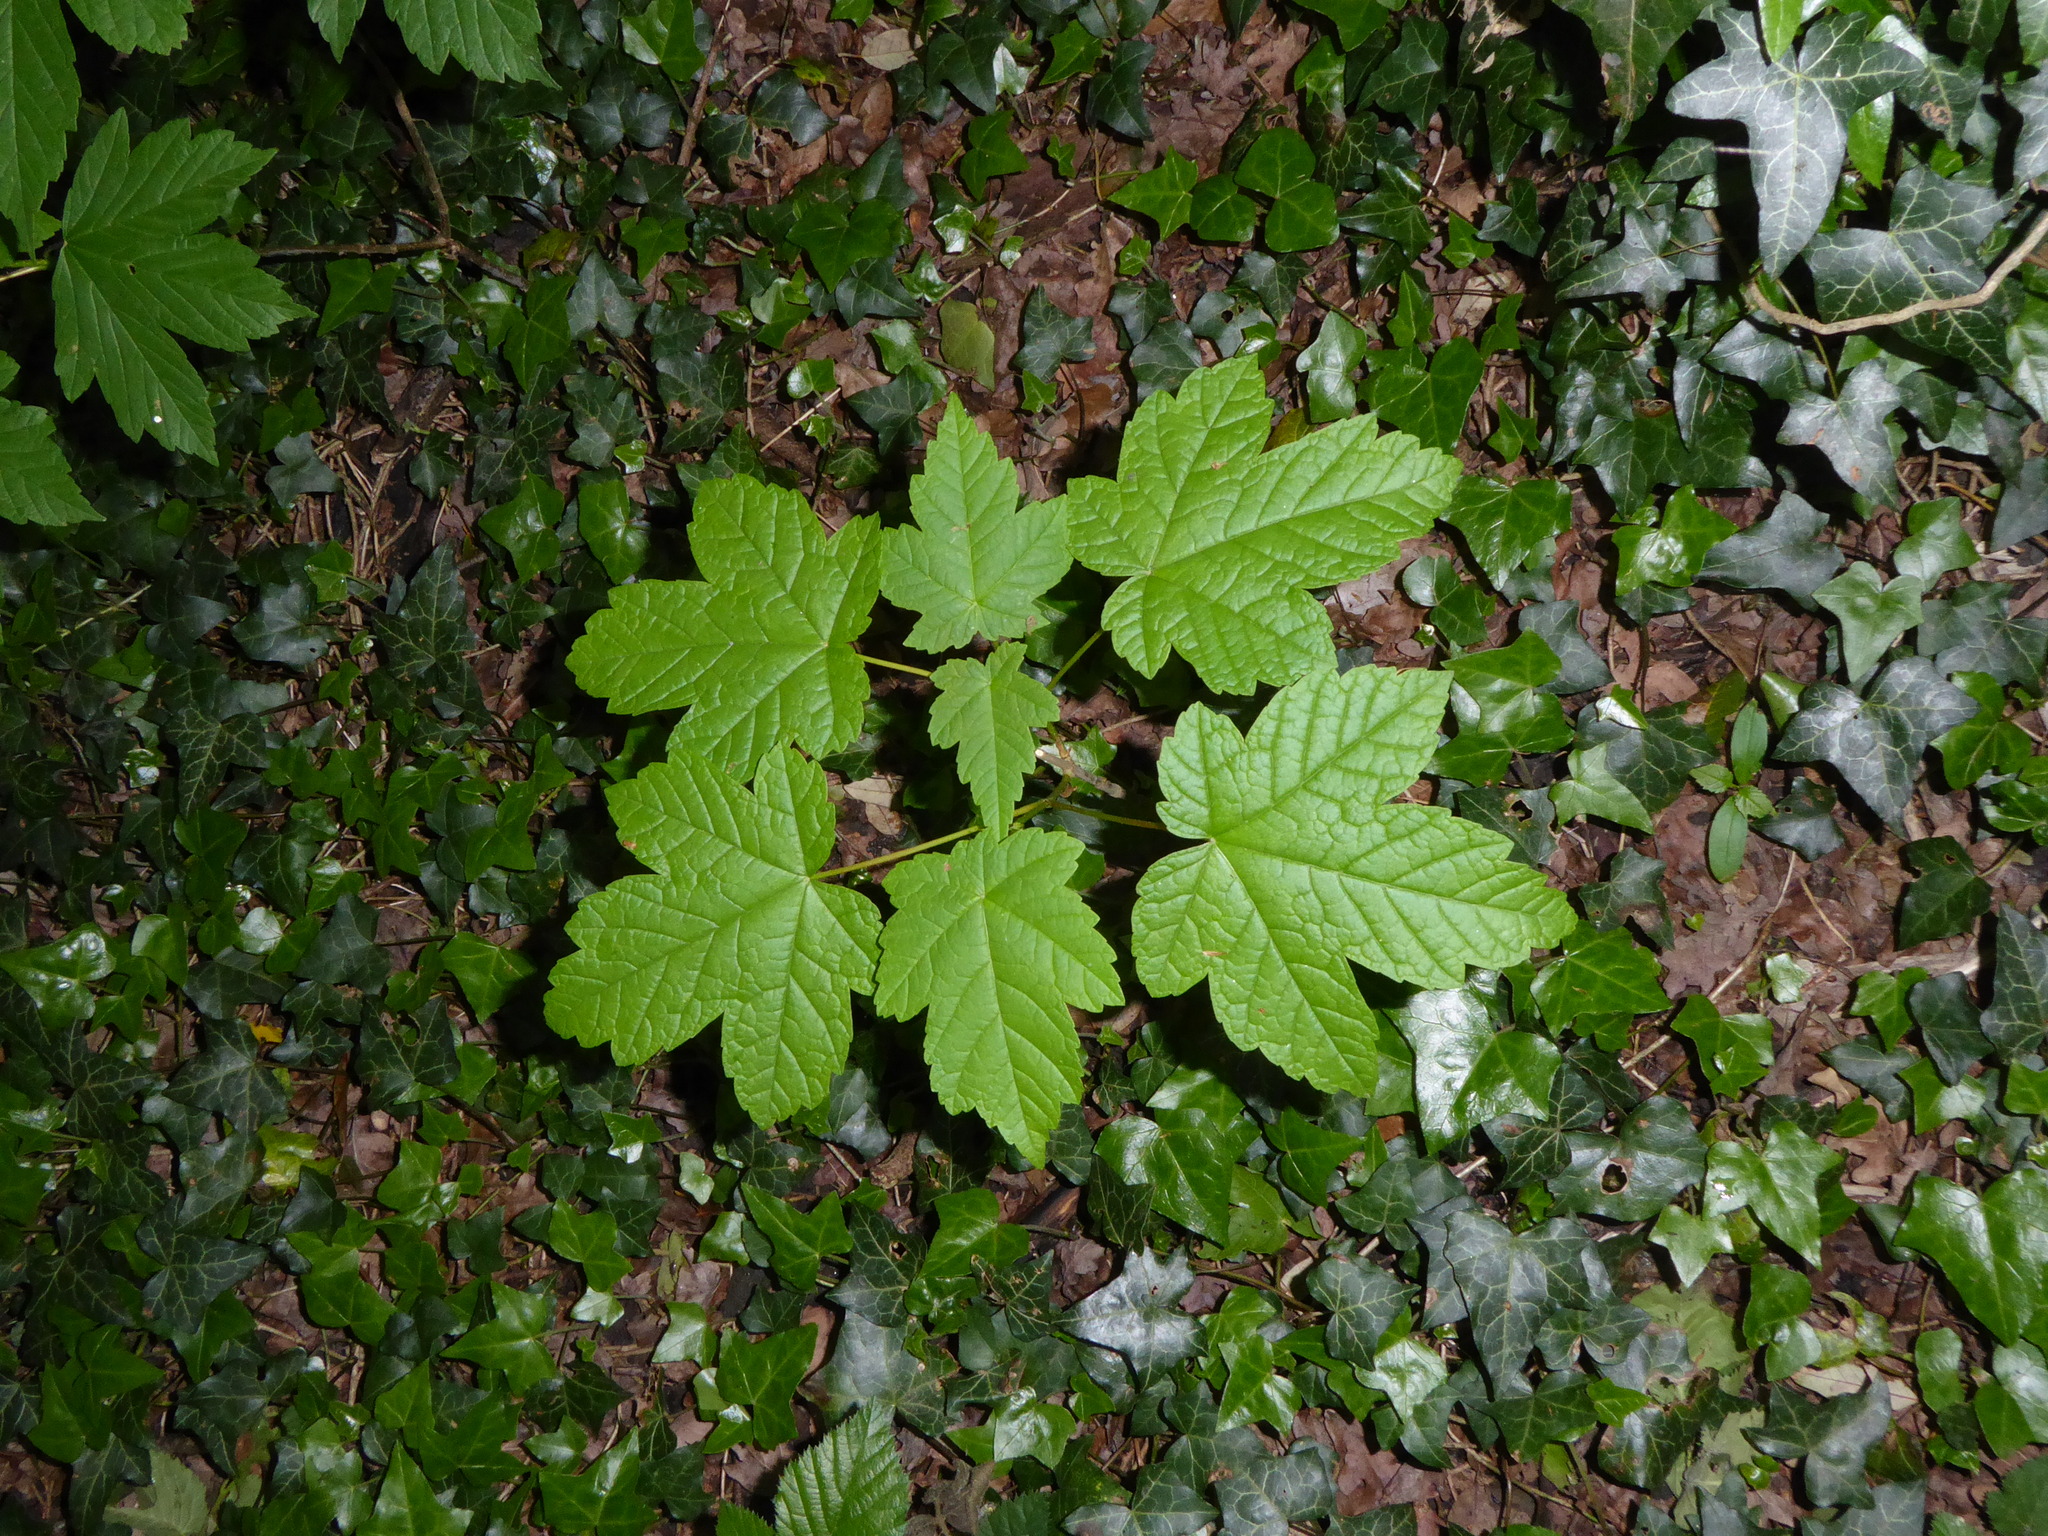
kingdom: Plantae
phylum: Tracheophyta
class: Magnoliopsida
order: Sapindales
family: Sapindaceae
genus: Acer
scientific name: Acer pseudoplatanus
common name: Sycamore
